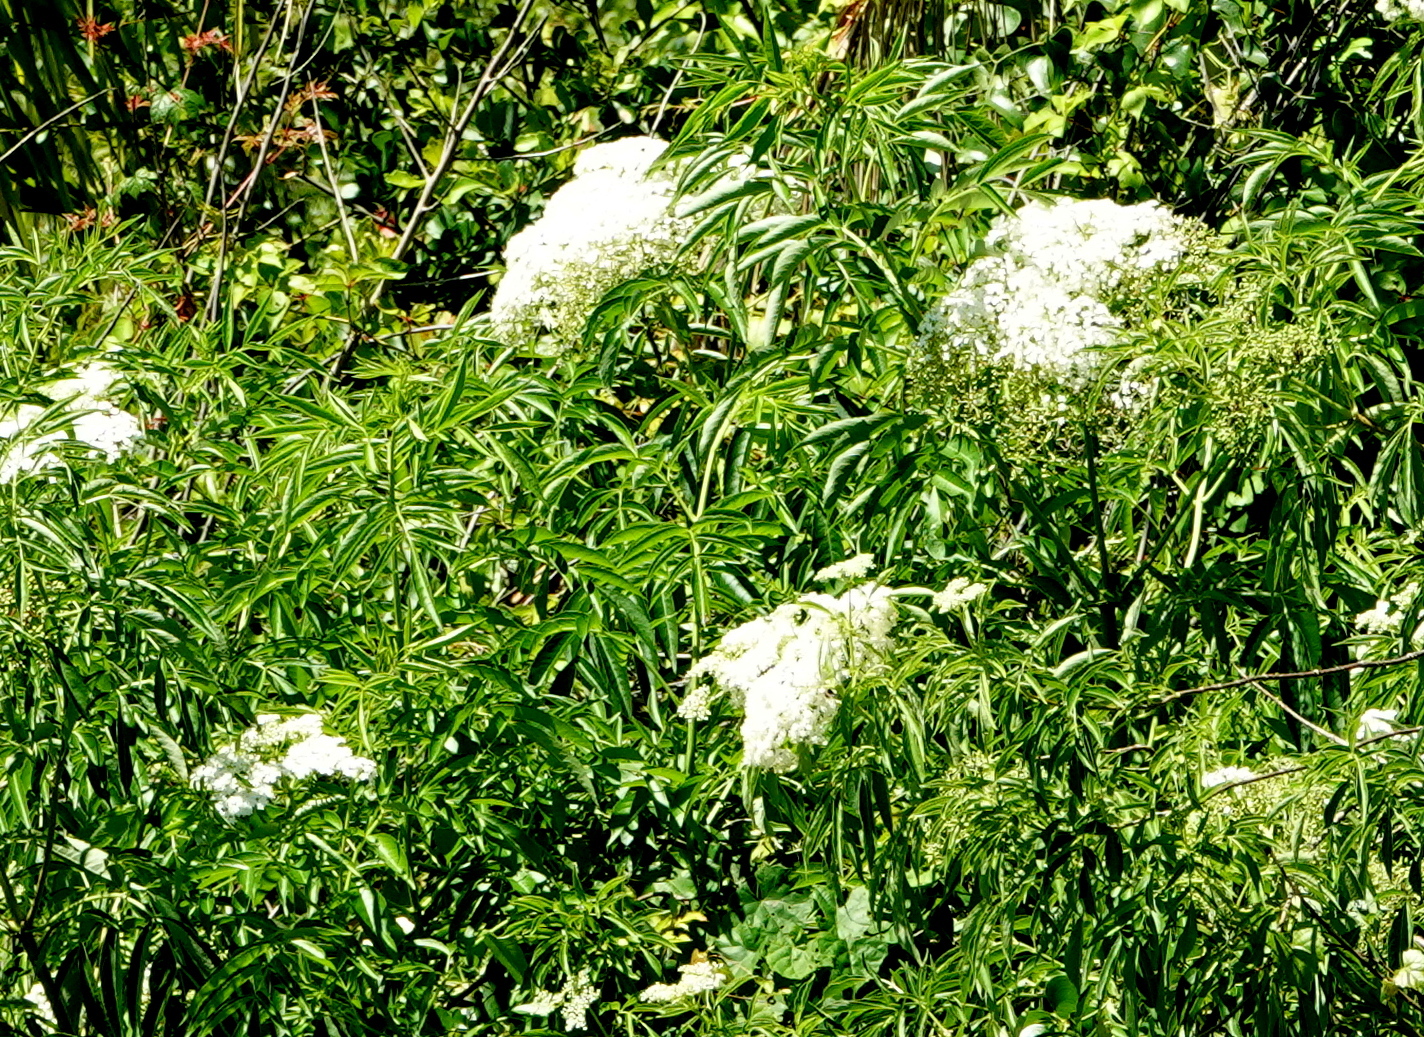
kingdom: Plantae
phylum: Tracheophyta
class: Magnoliopsida
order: Dipsacales
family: Viburnaceae
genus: Sambucus
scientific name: Sambucus canadensis
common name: American elder
